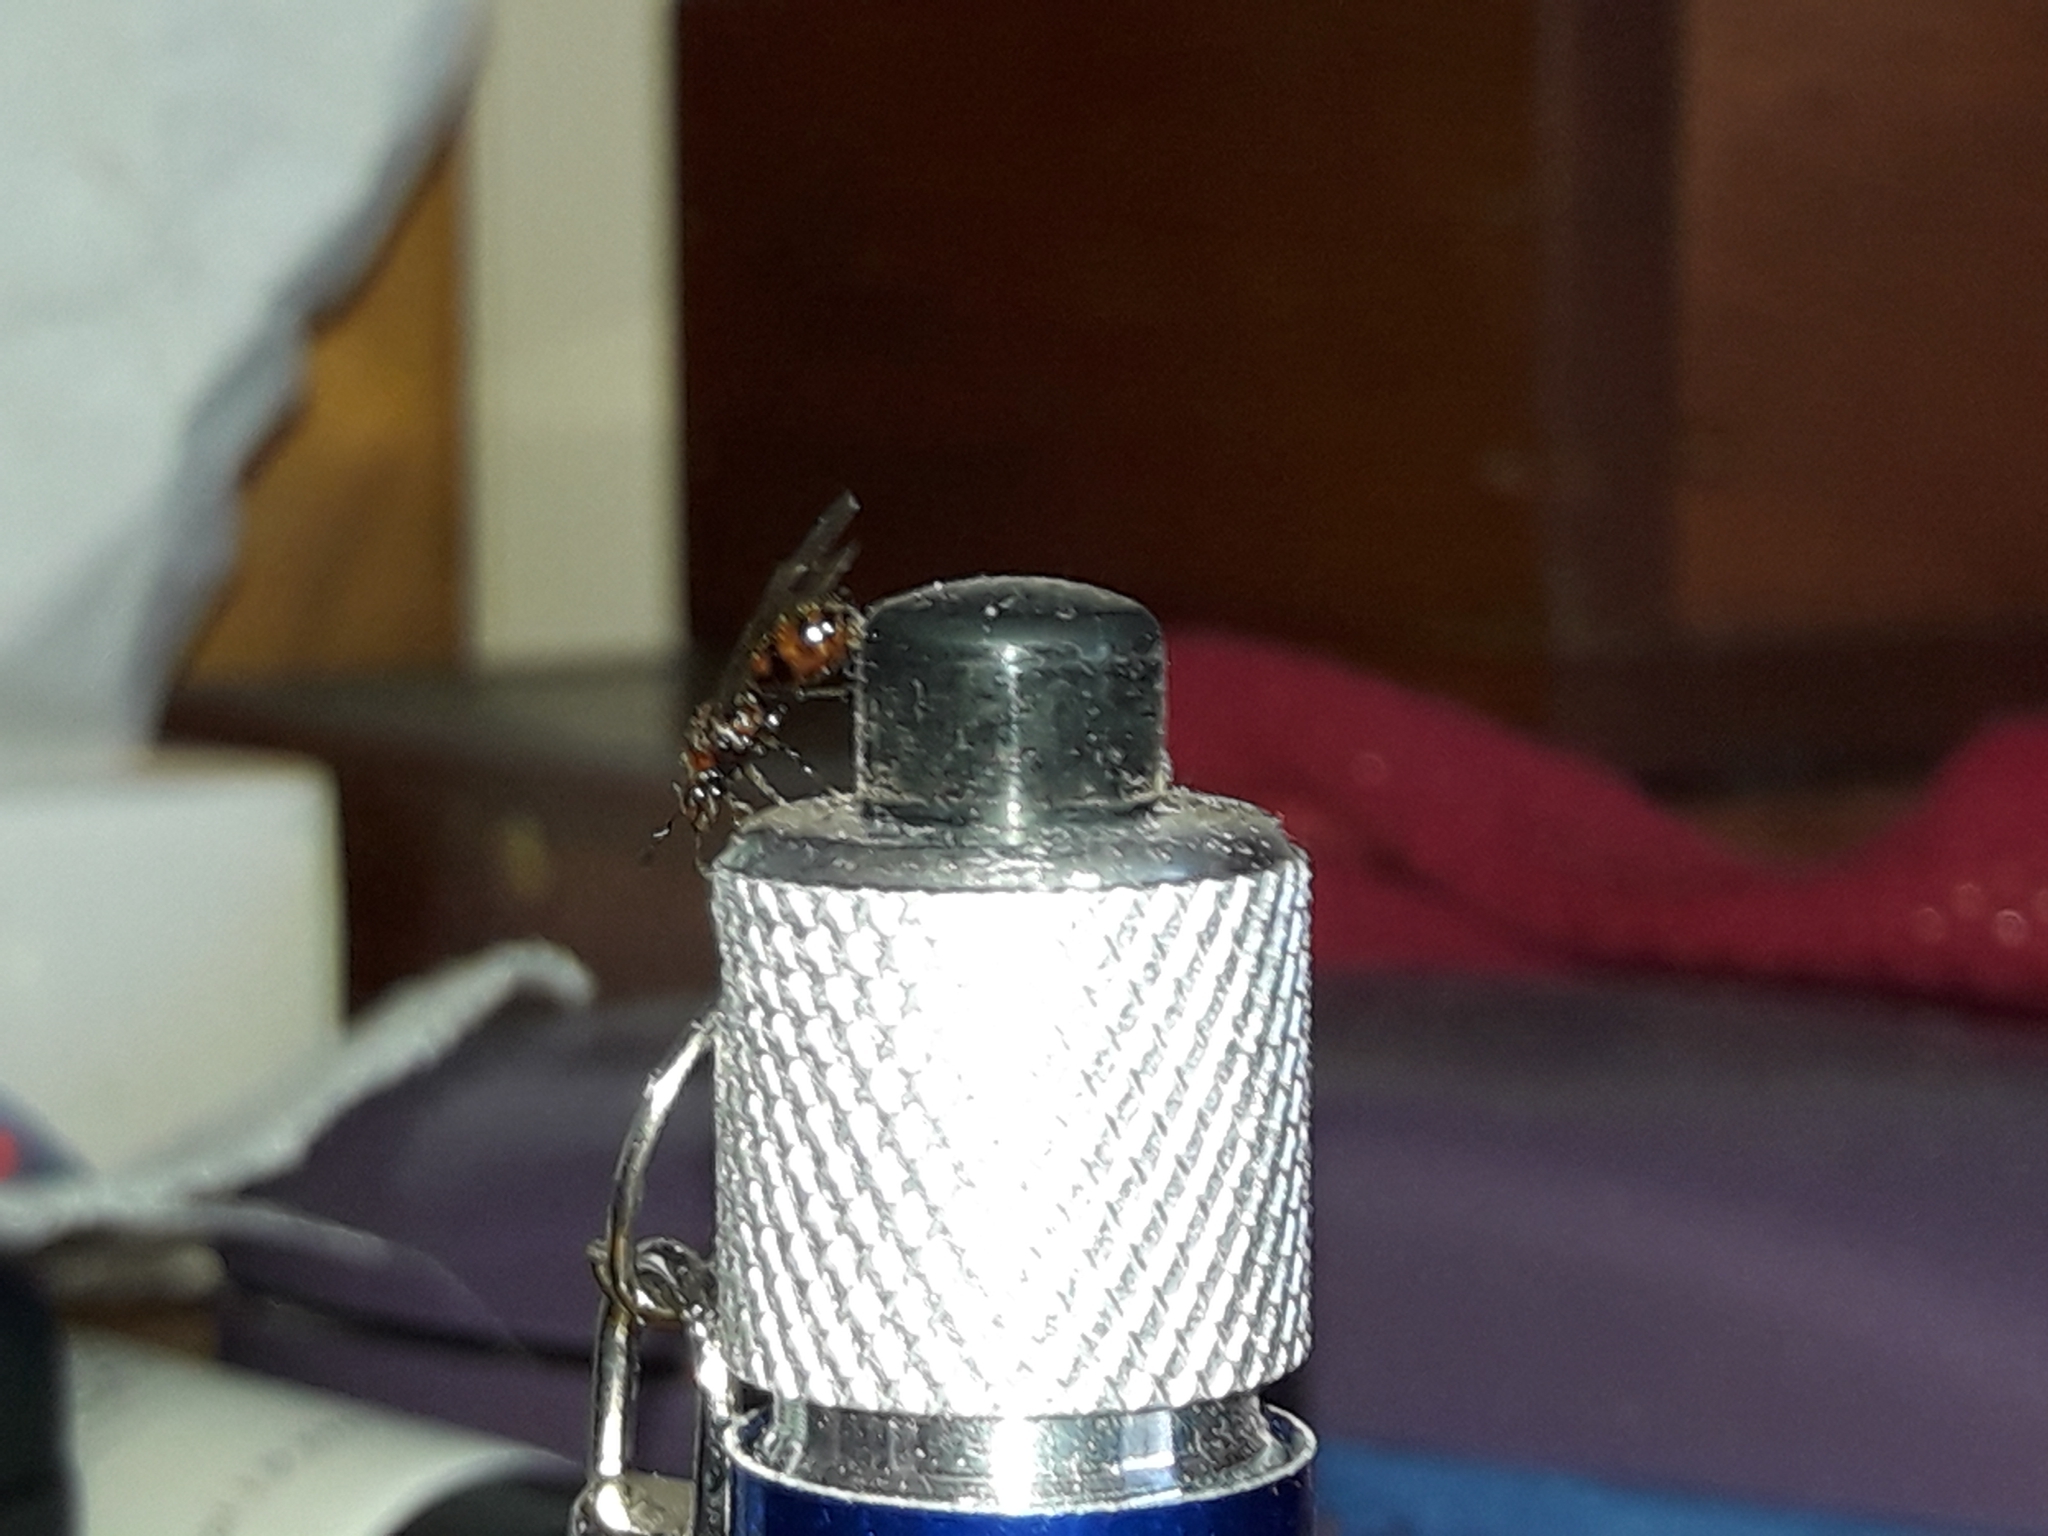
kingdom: Animalia
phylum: Arthropoda
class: Insecta
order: Hymenoptera
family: Formicidae
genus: Monomorium
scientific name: Monomorium antarcticum
